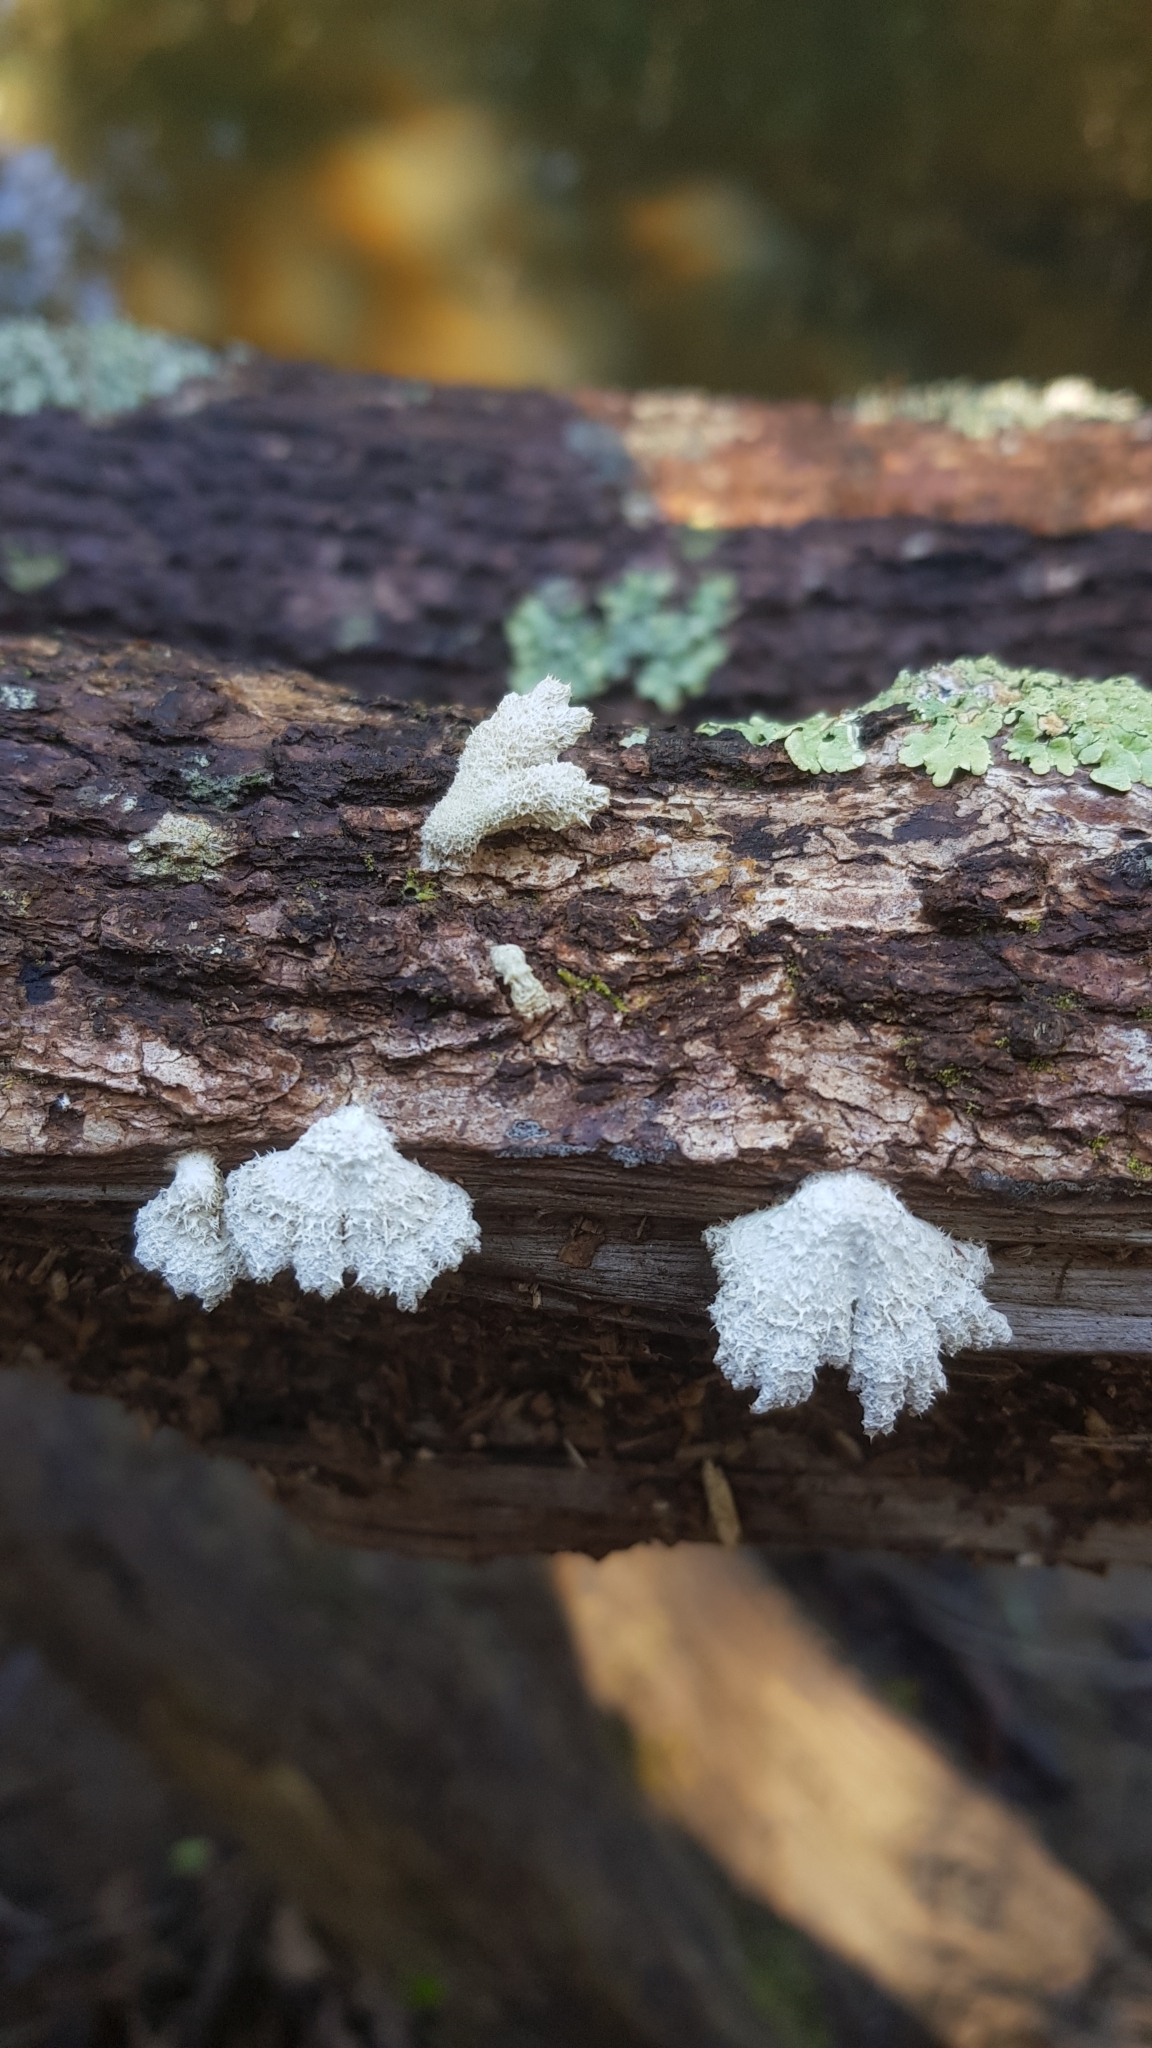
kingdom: Fungi
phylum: Basidiomycota
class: Agaricomycetes
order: Agaricales
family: Schizophyllaceae
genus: Schizophyllum
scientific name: Schizophyllum commune
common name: Common porecrust
